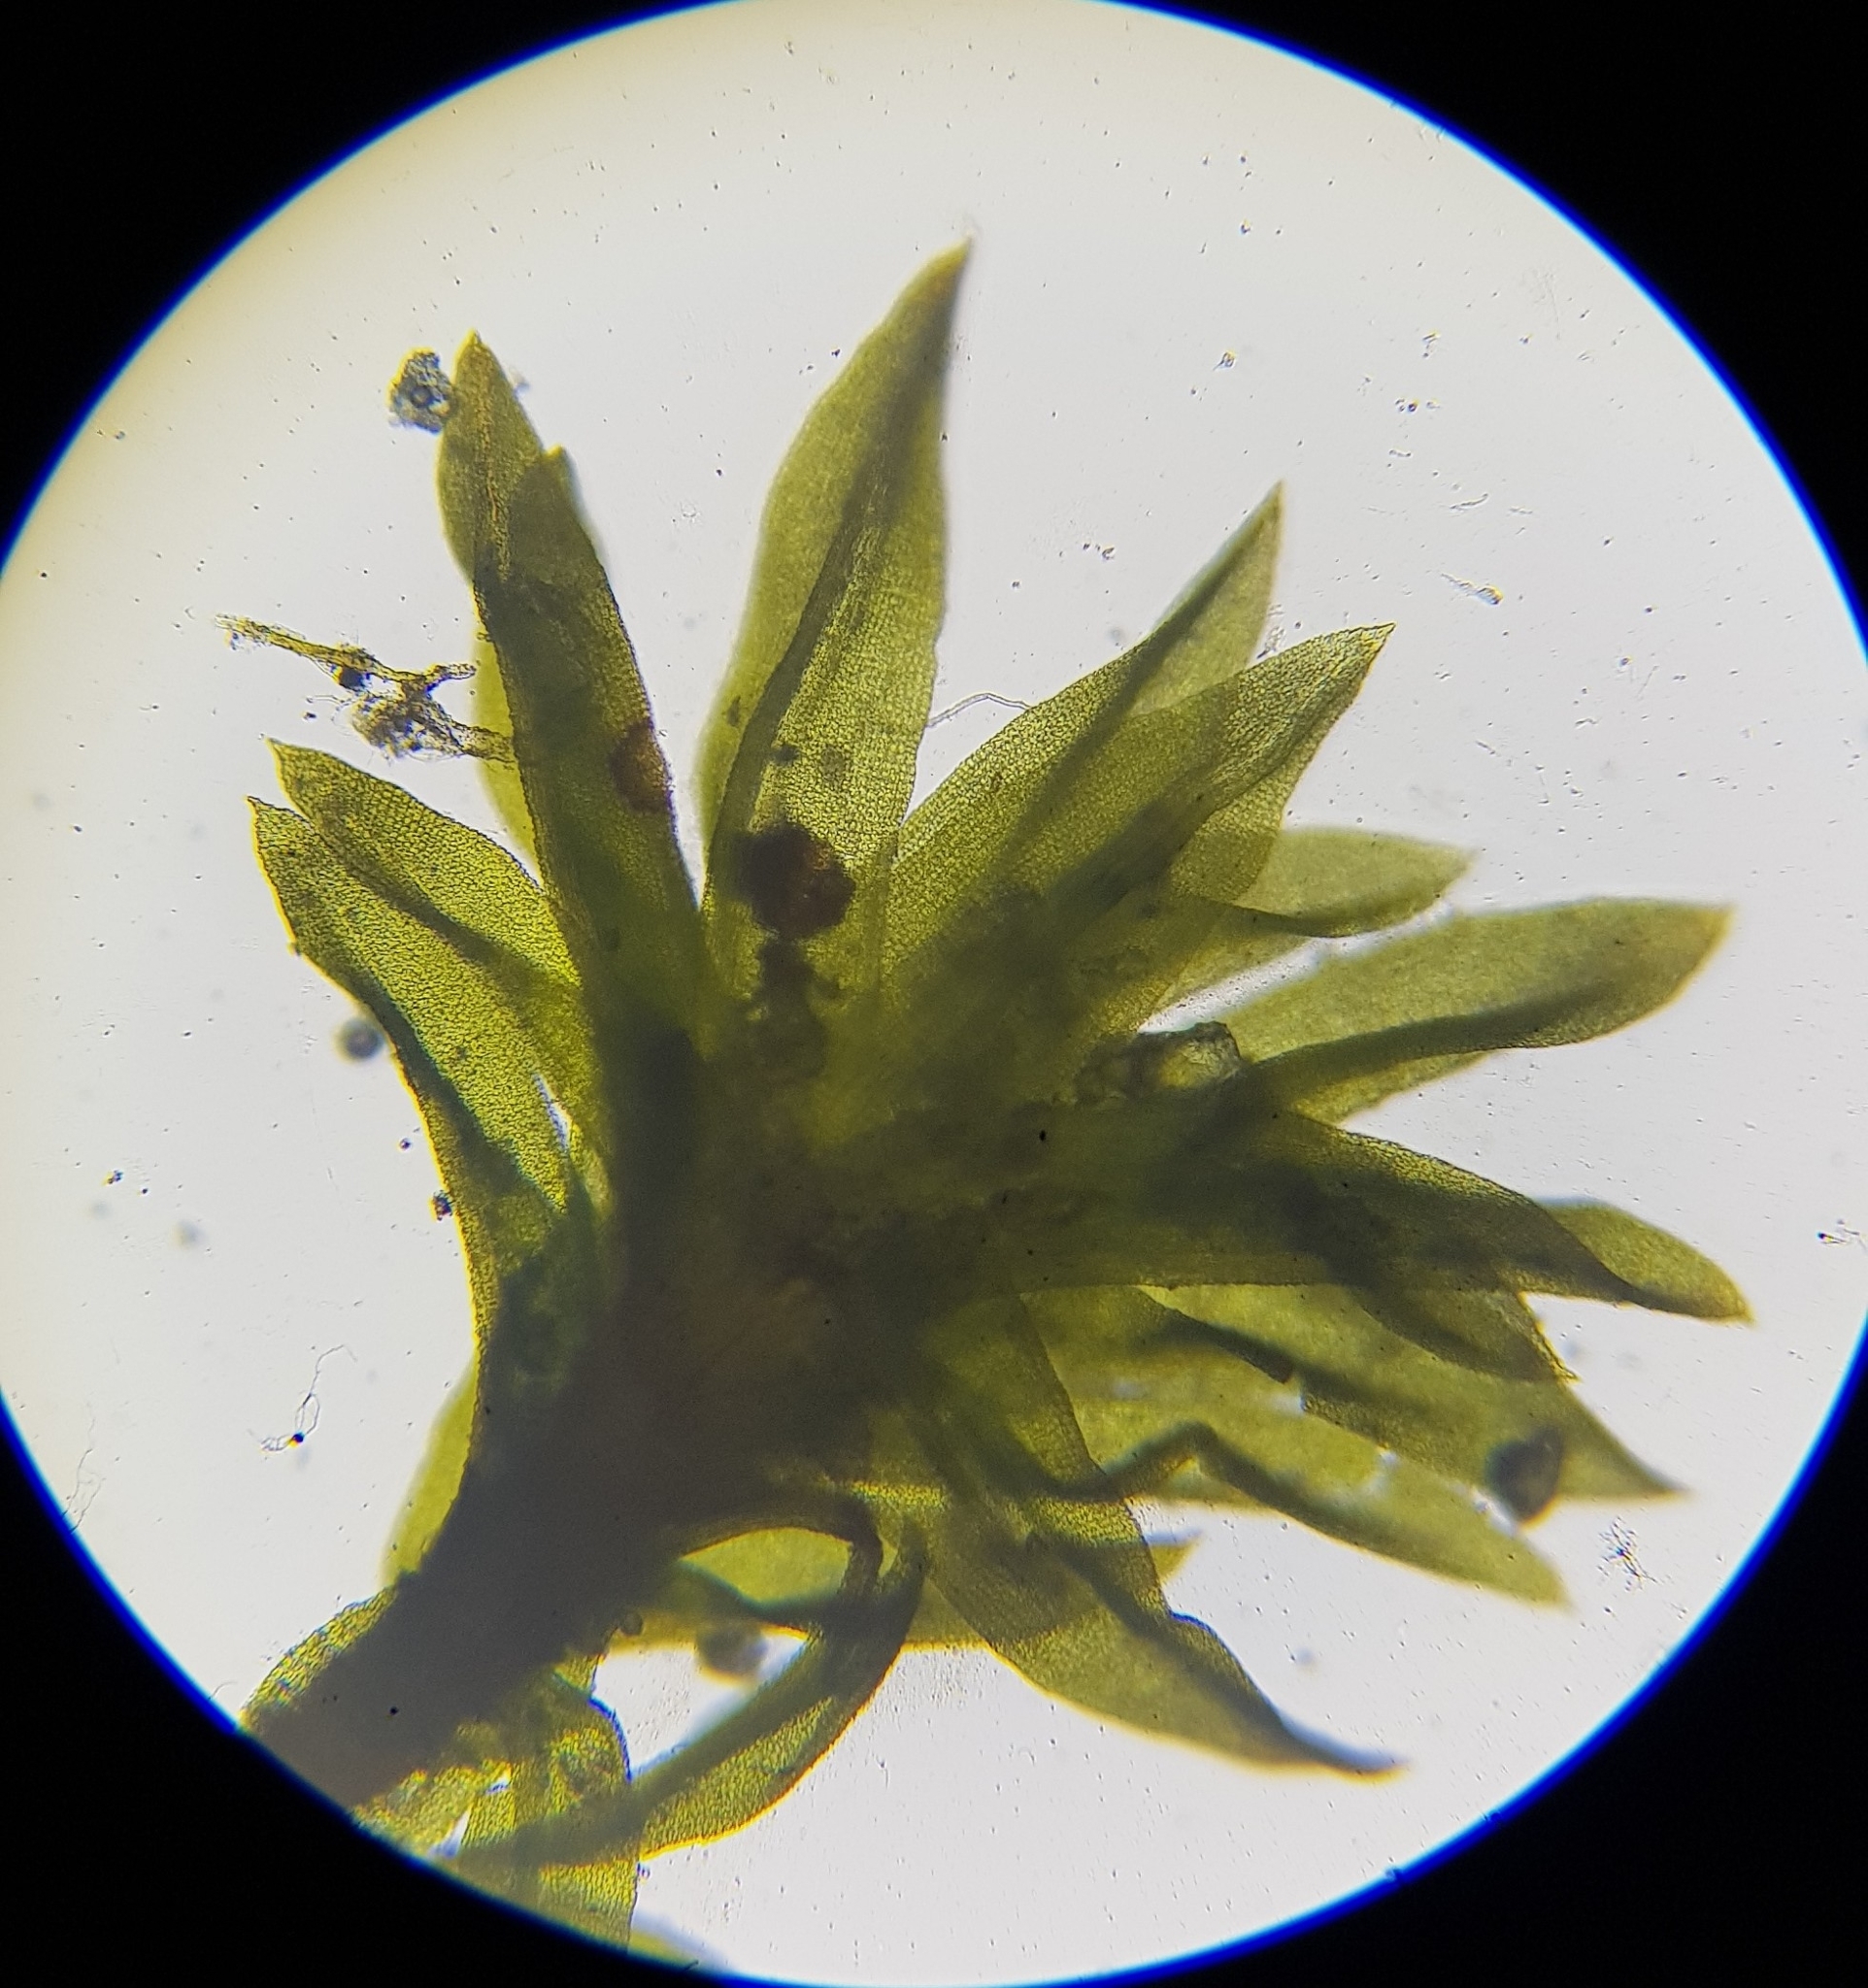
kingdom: Plantae
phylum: Bryophyta
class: Bryopsida
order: Pottiales
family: Pottiaceae
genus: Streblotrichum
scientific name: Streblotrichum convolutum
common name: Lesser bird's-claw beard-moss
